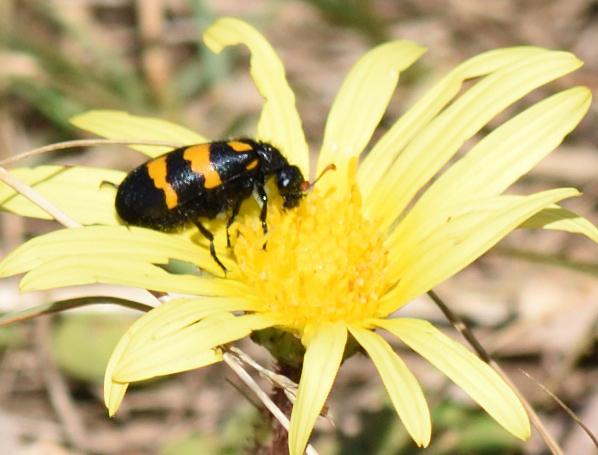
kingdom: Animalia
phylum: Arthropoda
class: Insecta
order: Coleoptera
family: Meloidae
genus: Meloe
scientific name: Meloe lunata
